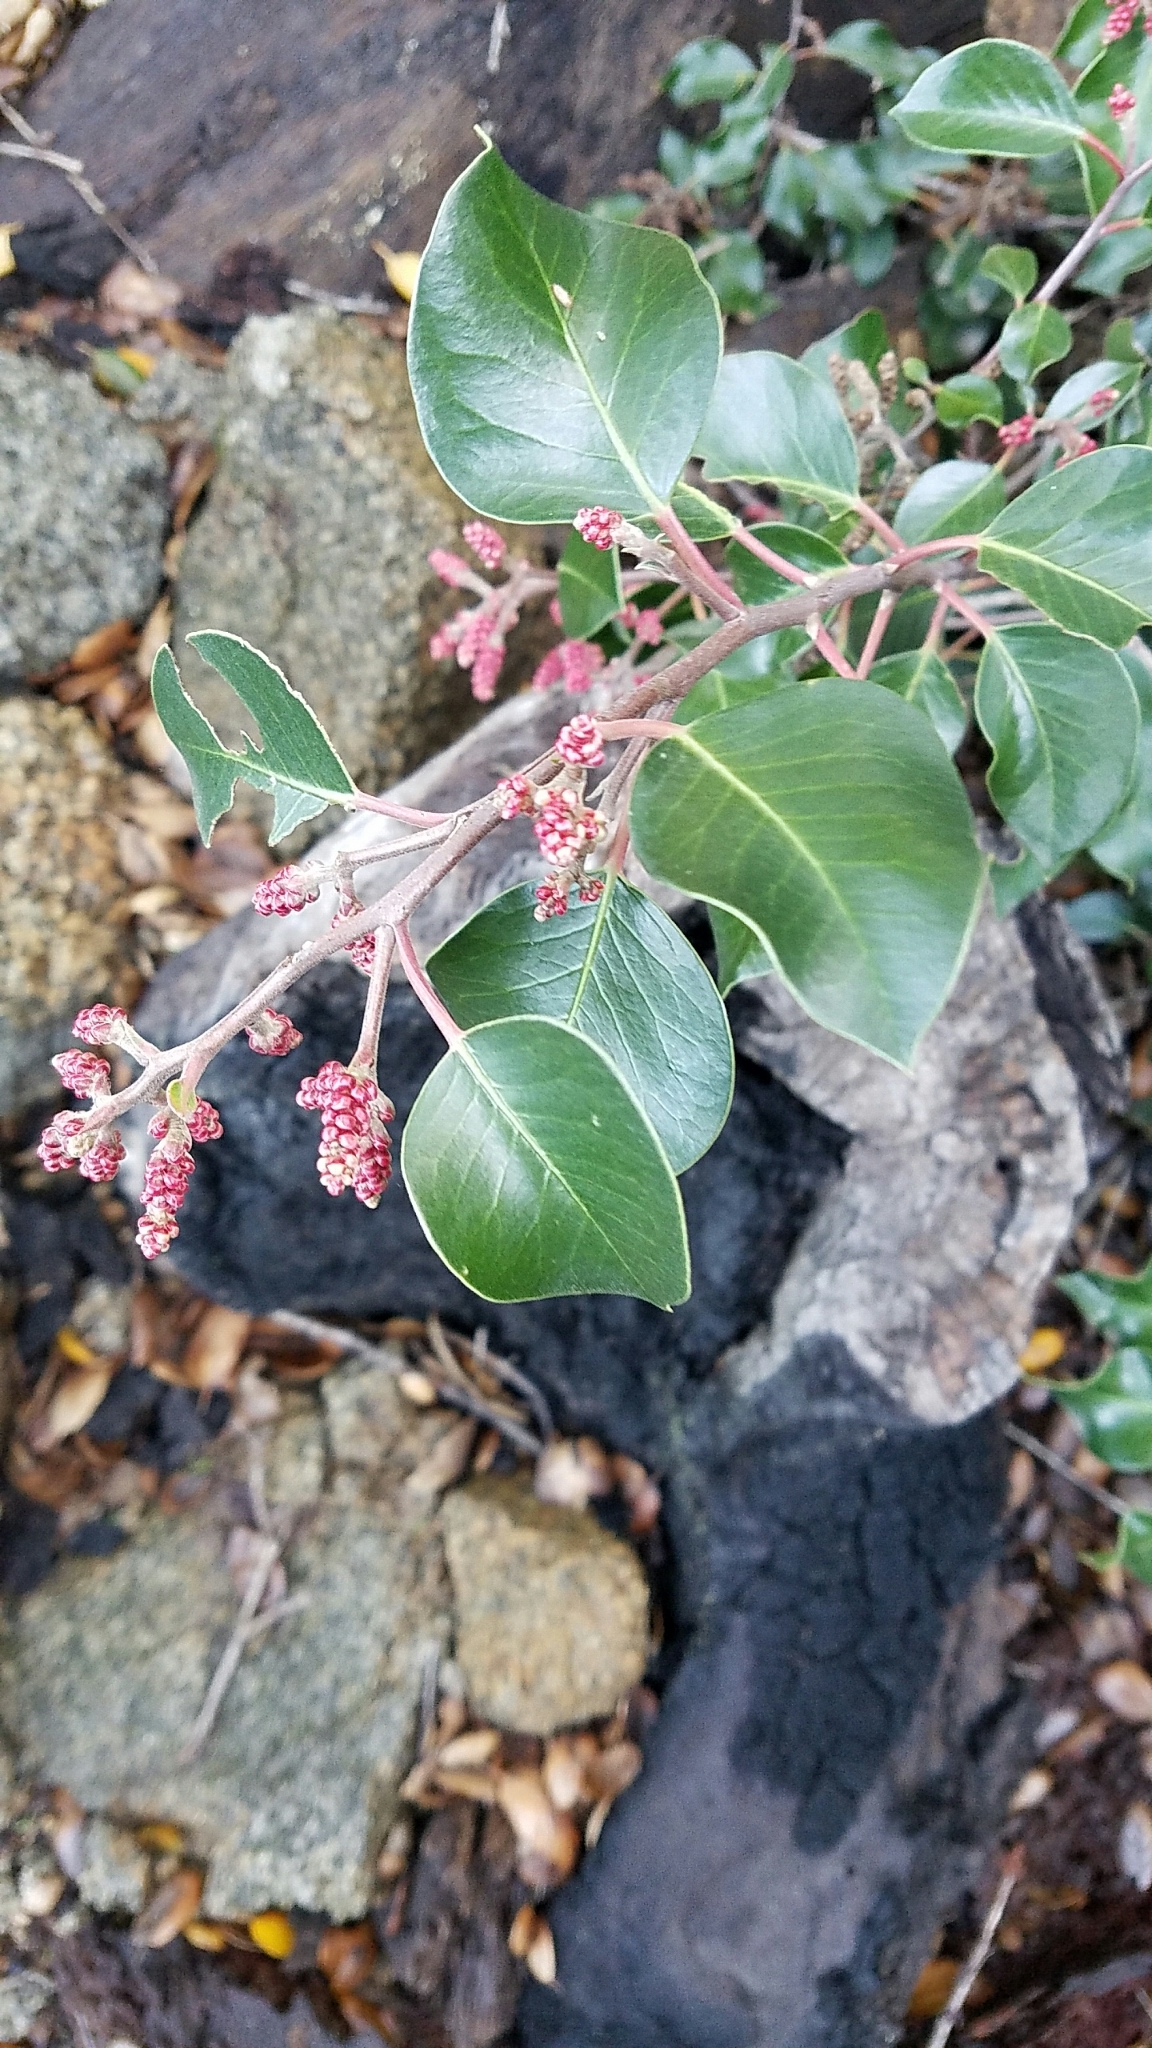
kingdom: Plantae
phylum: Tracheophyta
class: Magnoliopsida
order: Sapindales
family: Anacardiaceae
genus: Rhus
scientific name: Rhus ovata
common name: Sugar sumac
